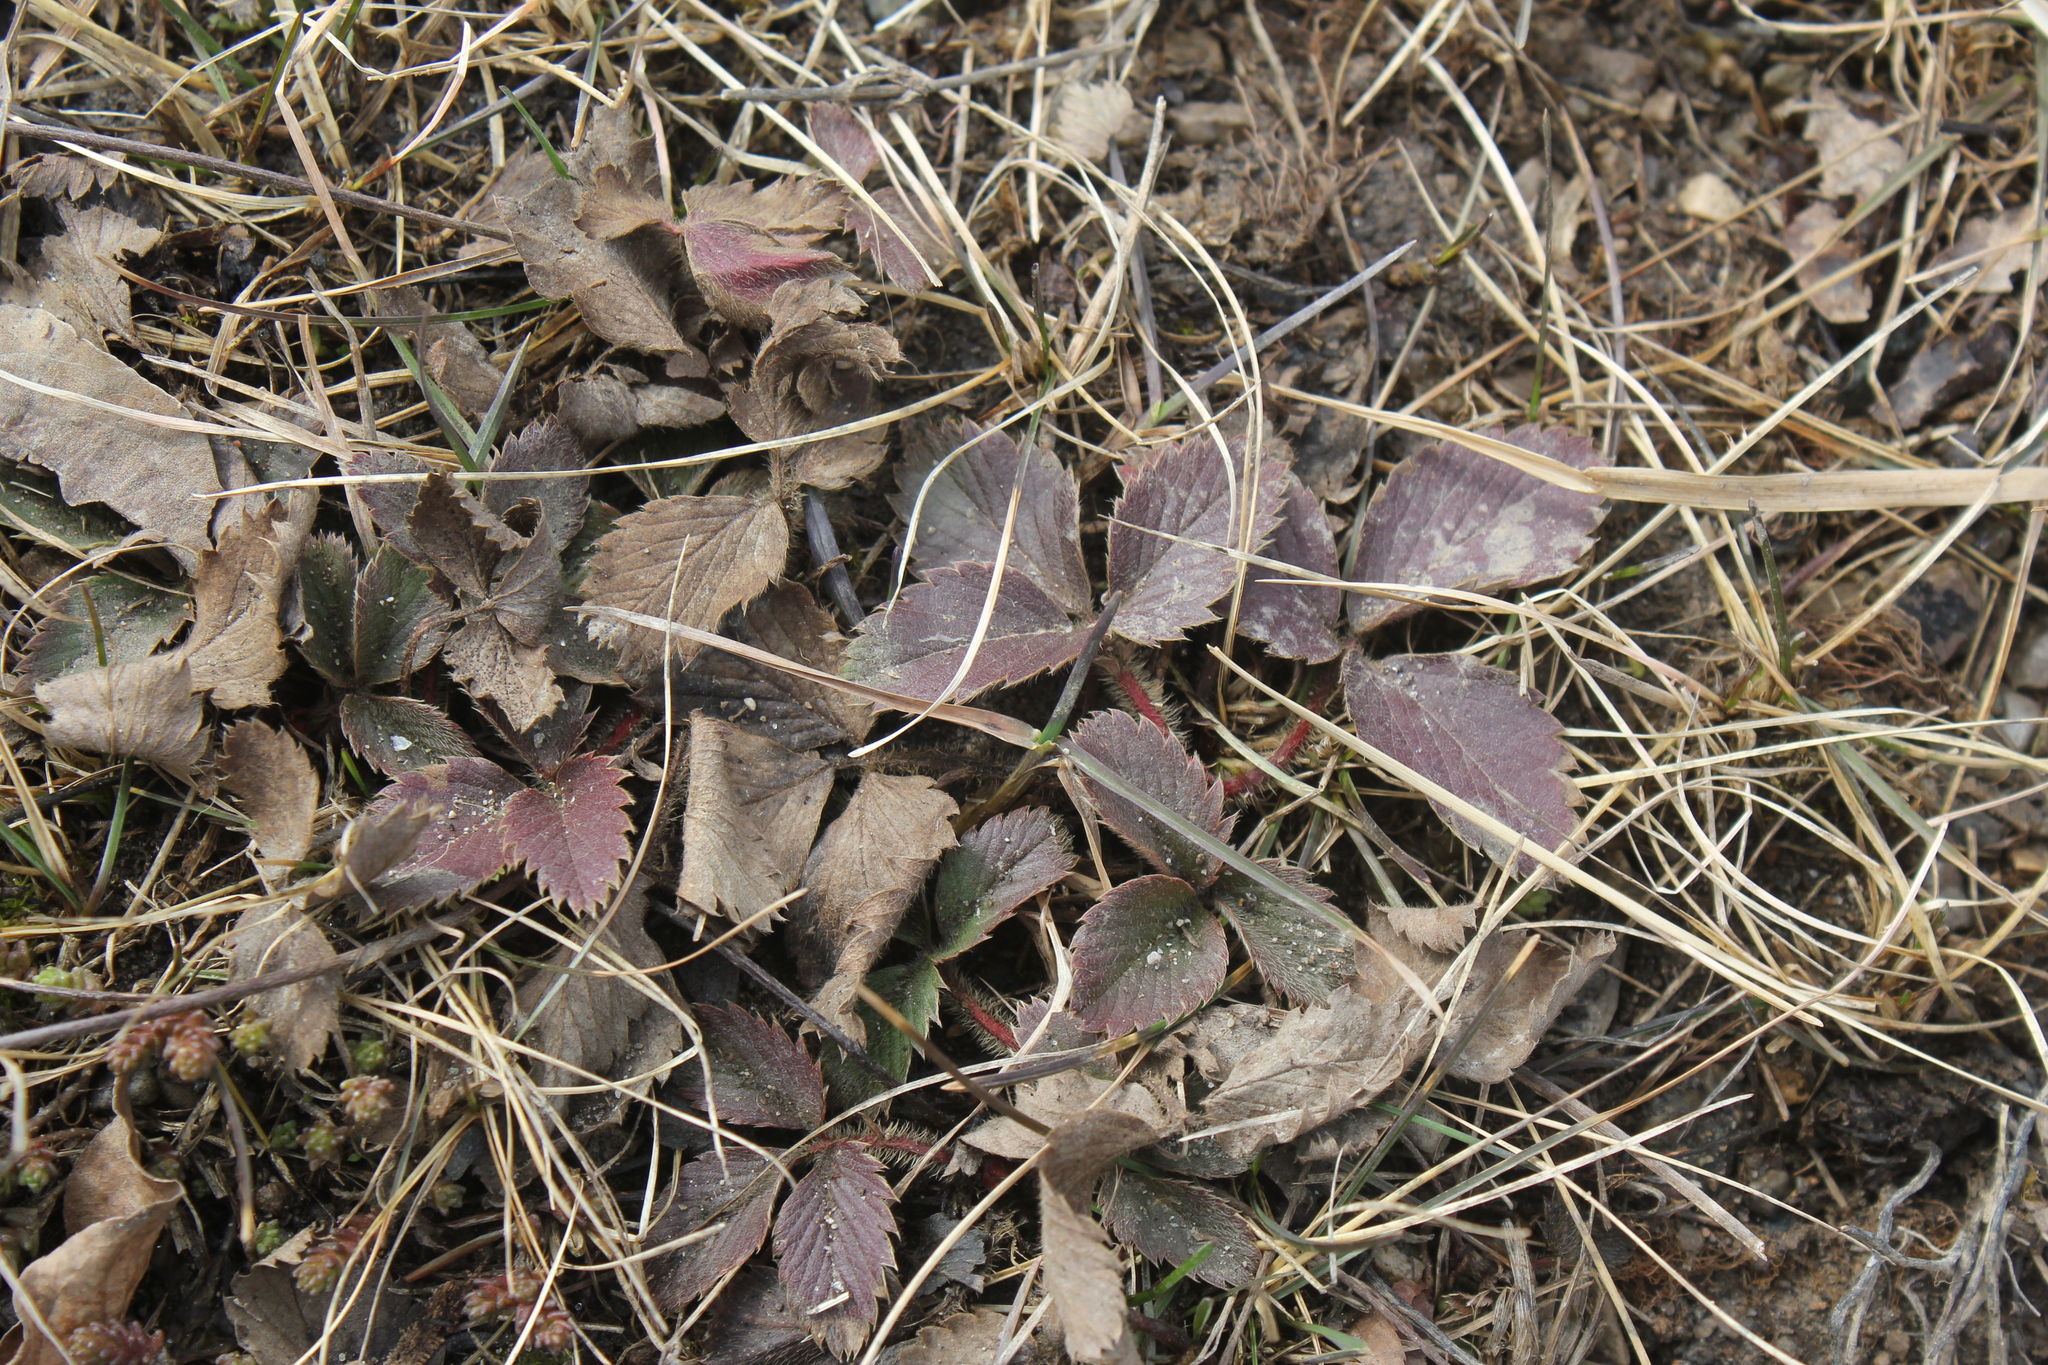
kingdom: Plantae
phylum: Tracheophyta
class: Magnoliopsida
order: Rosales
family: Rosaceae
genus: Fragaria
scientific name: Fragaria virginiana
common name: Thickleaved wild strawberry
